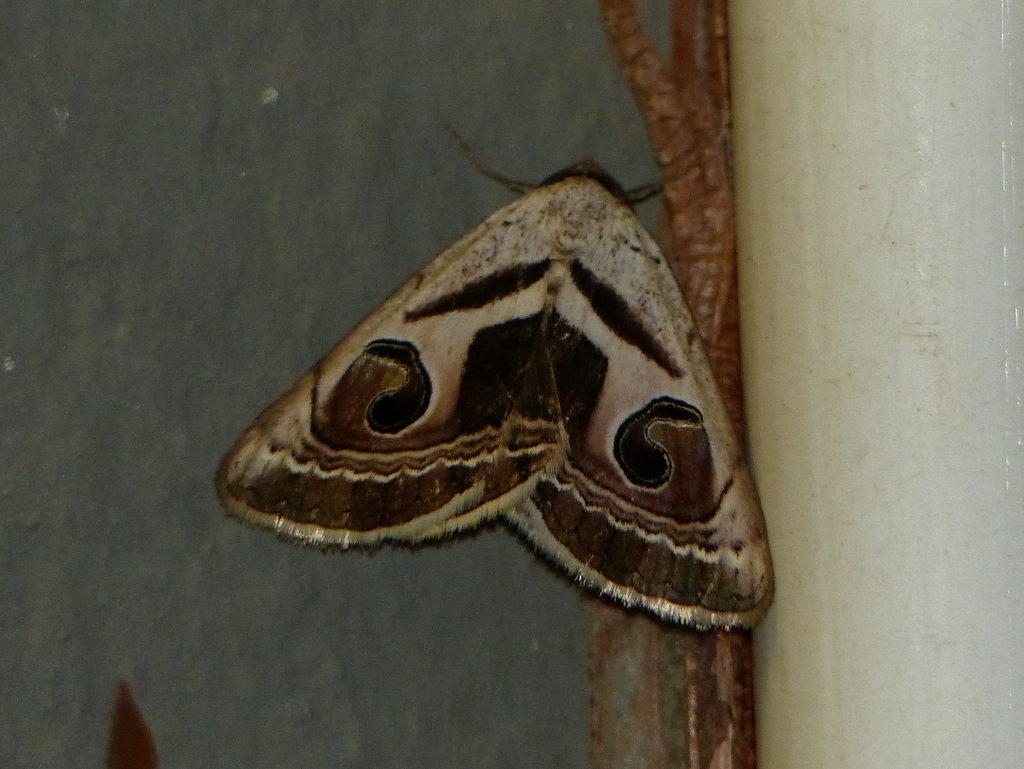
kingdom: Animalia
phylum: Arthropoda
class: Insecta
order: Lepidoptera
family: Erebidae
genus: Cometaster
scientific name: Cometaster pyrula
